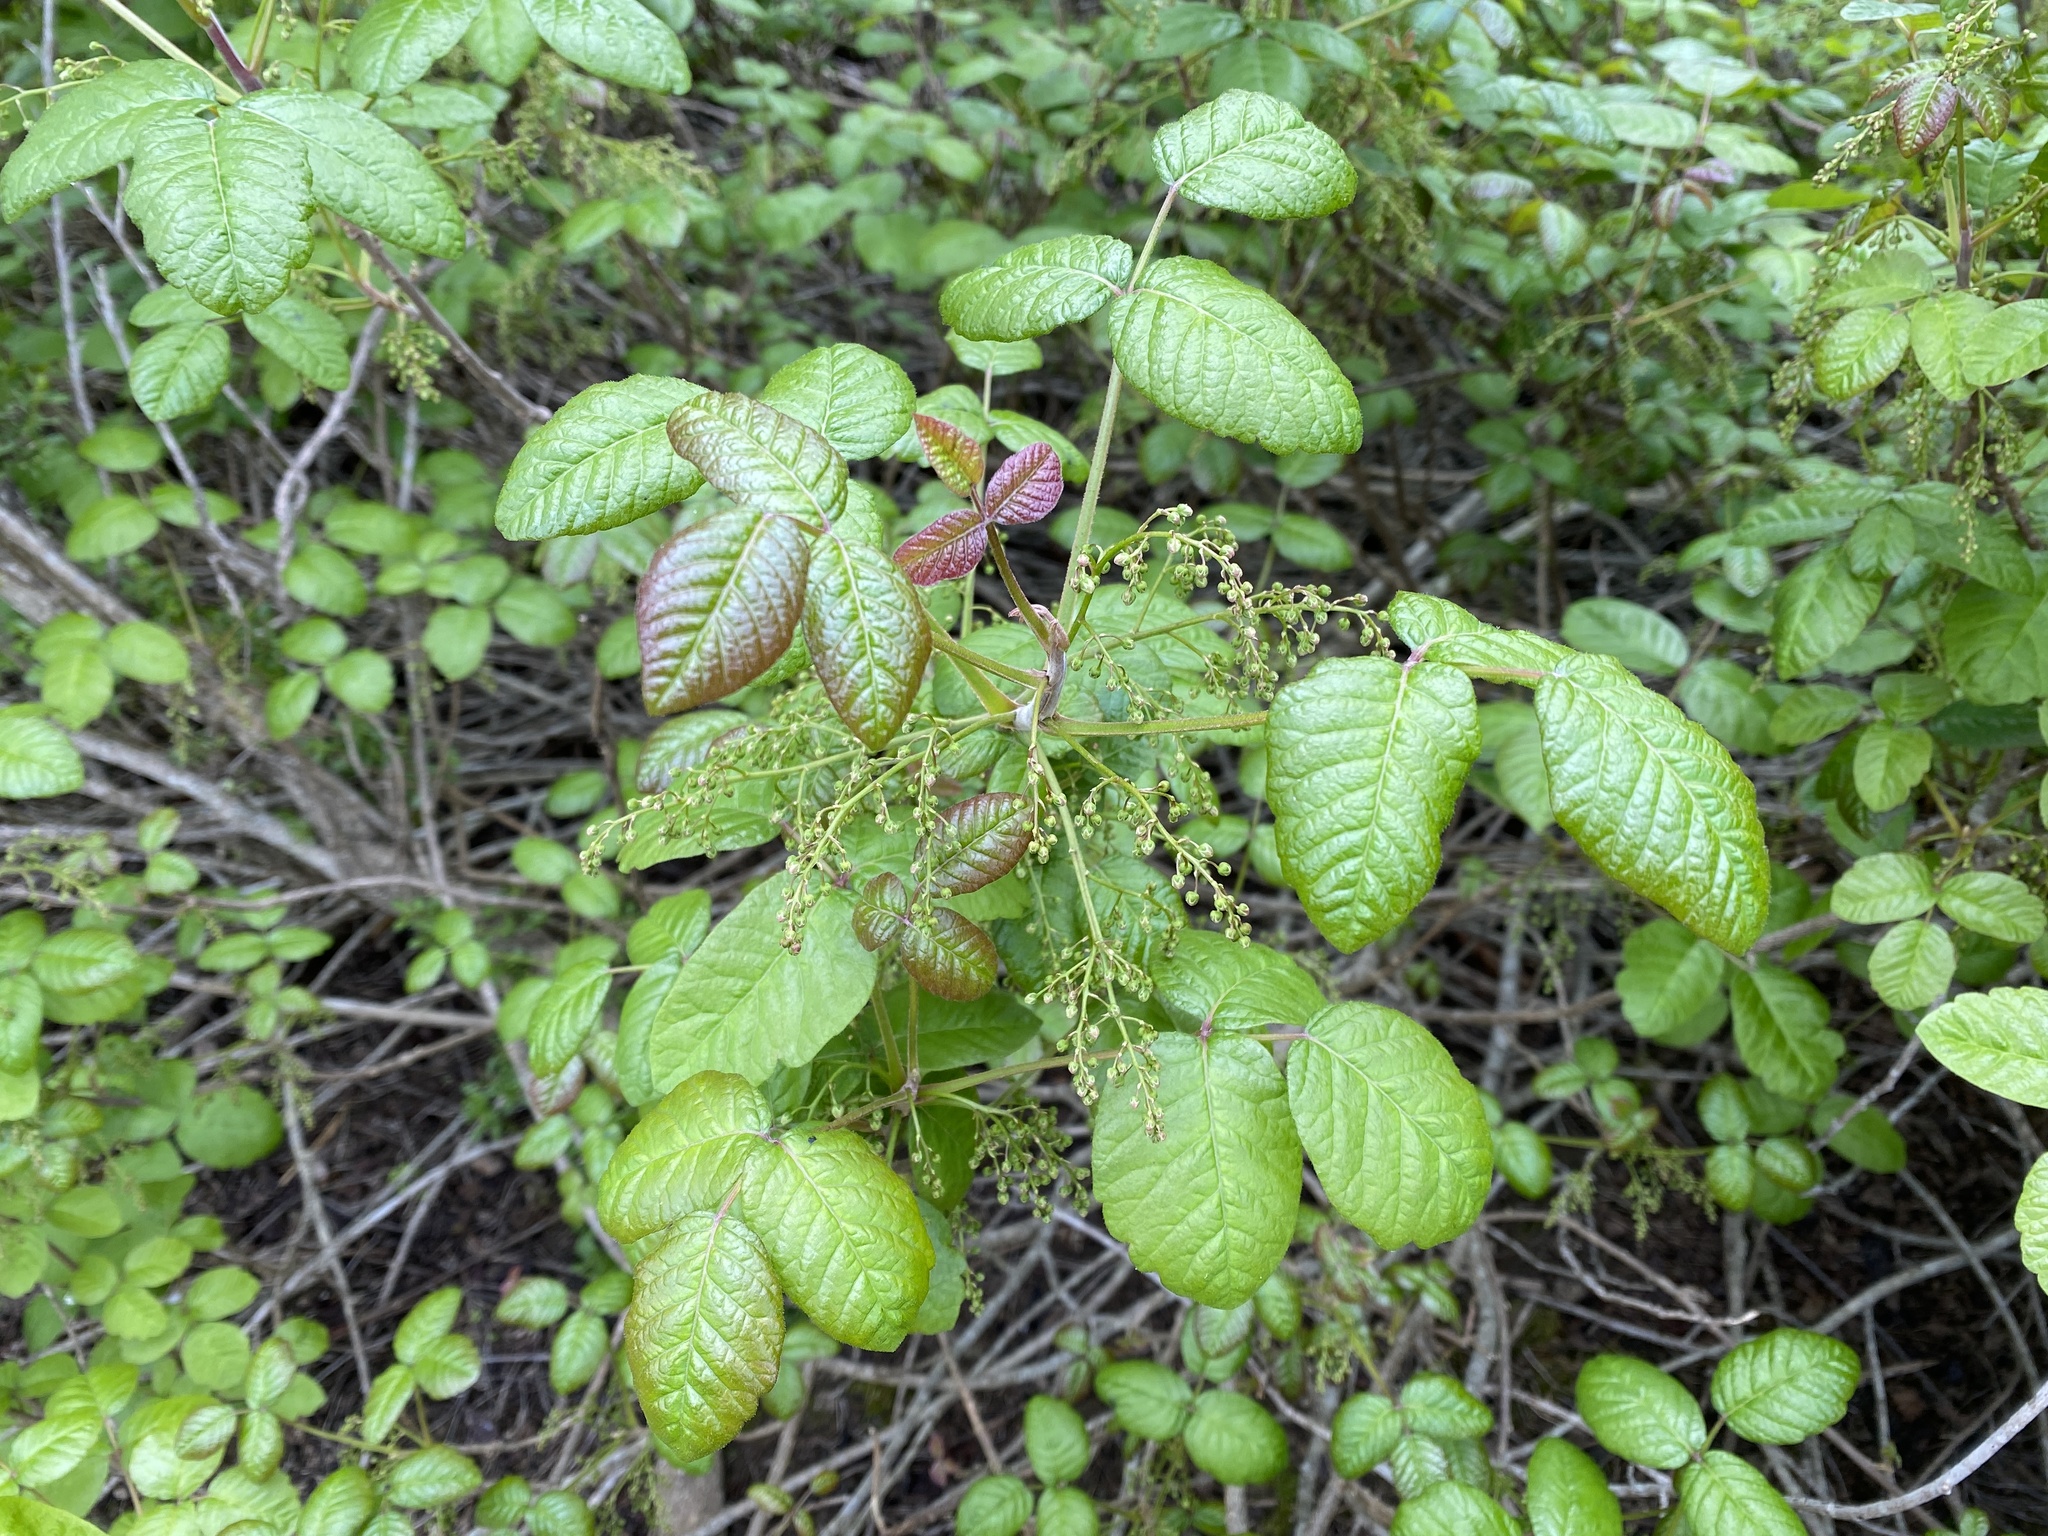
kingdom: Plantae
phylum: Tracheophyta
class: Magnoliopsida
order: Sapindales
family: Anacardiaceae
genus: Toxicodendron
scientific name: Toxicodendron diversilobum
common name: Pacific poison-oak
